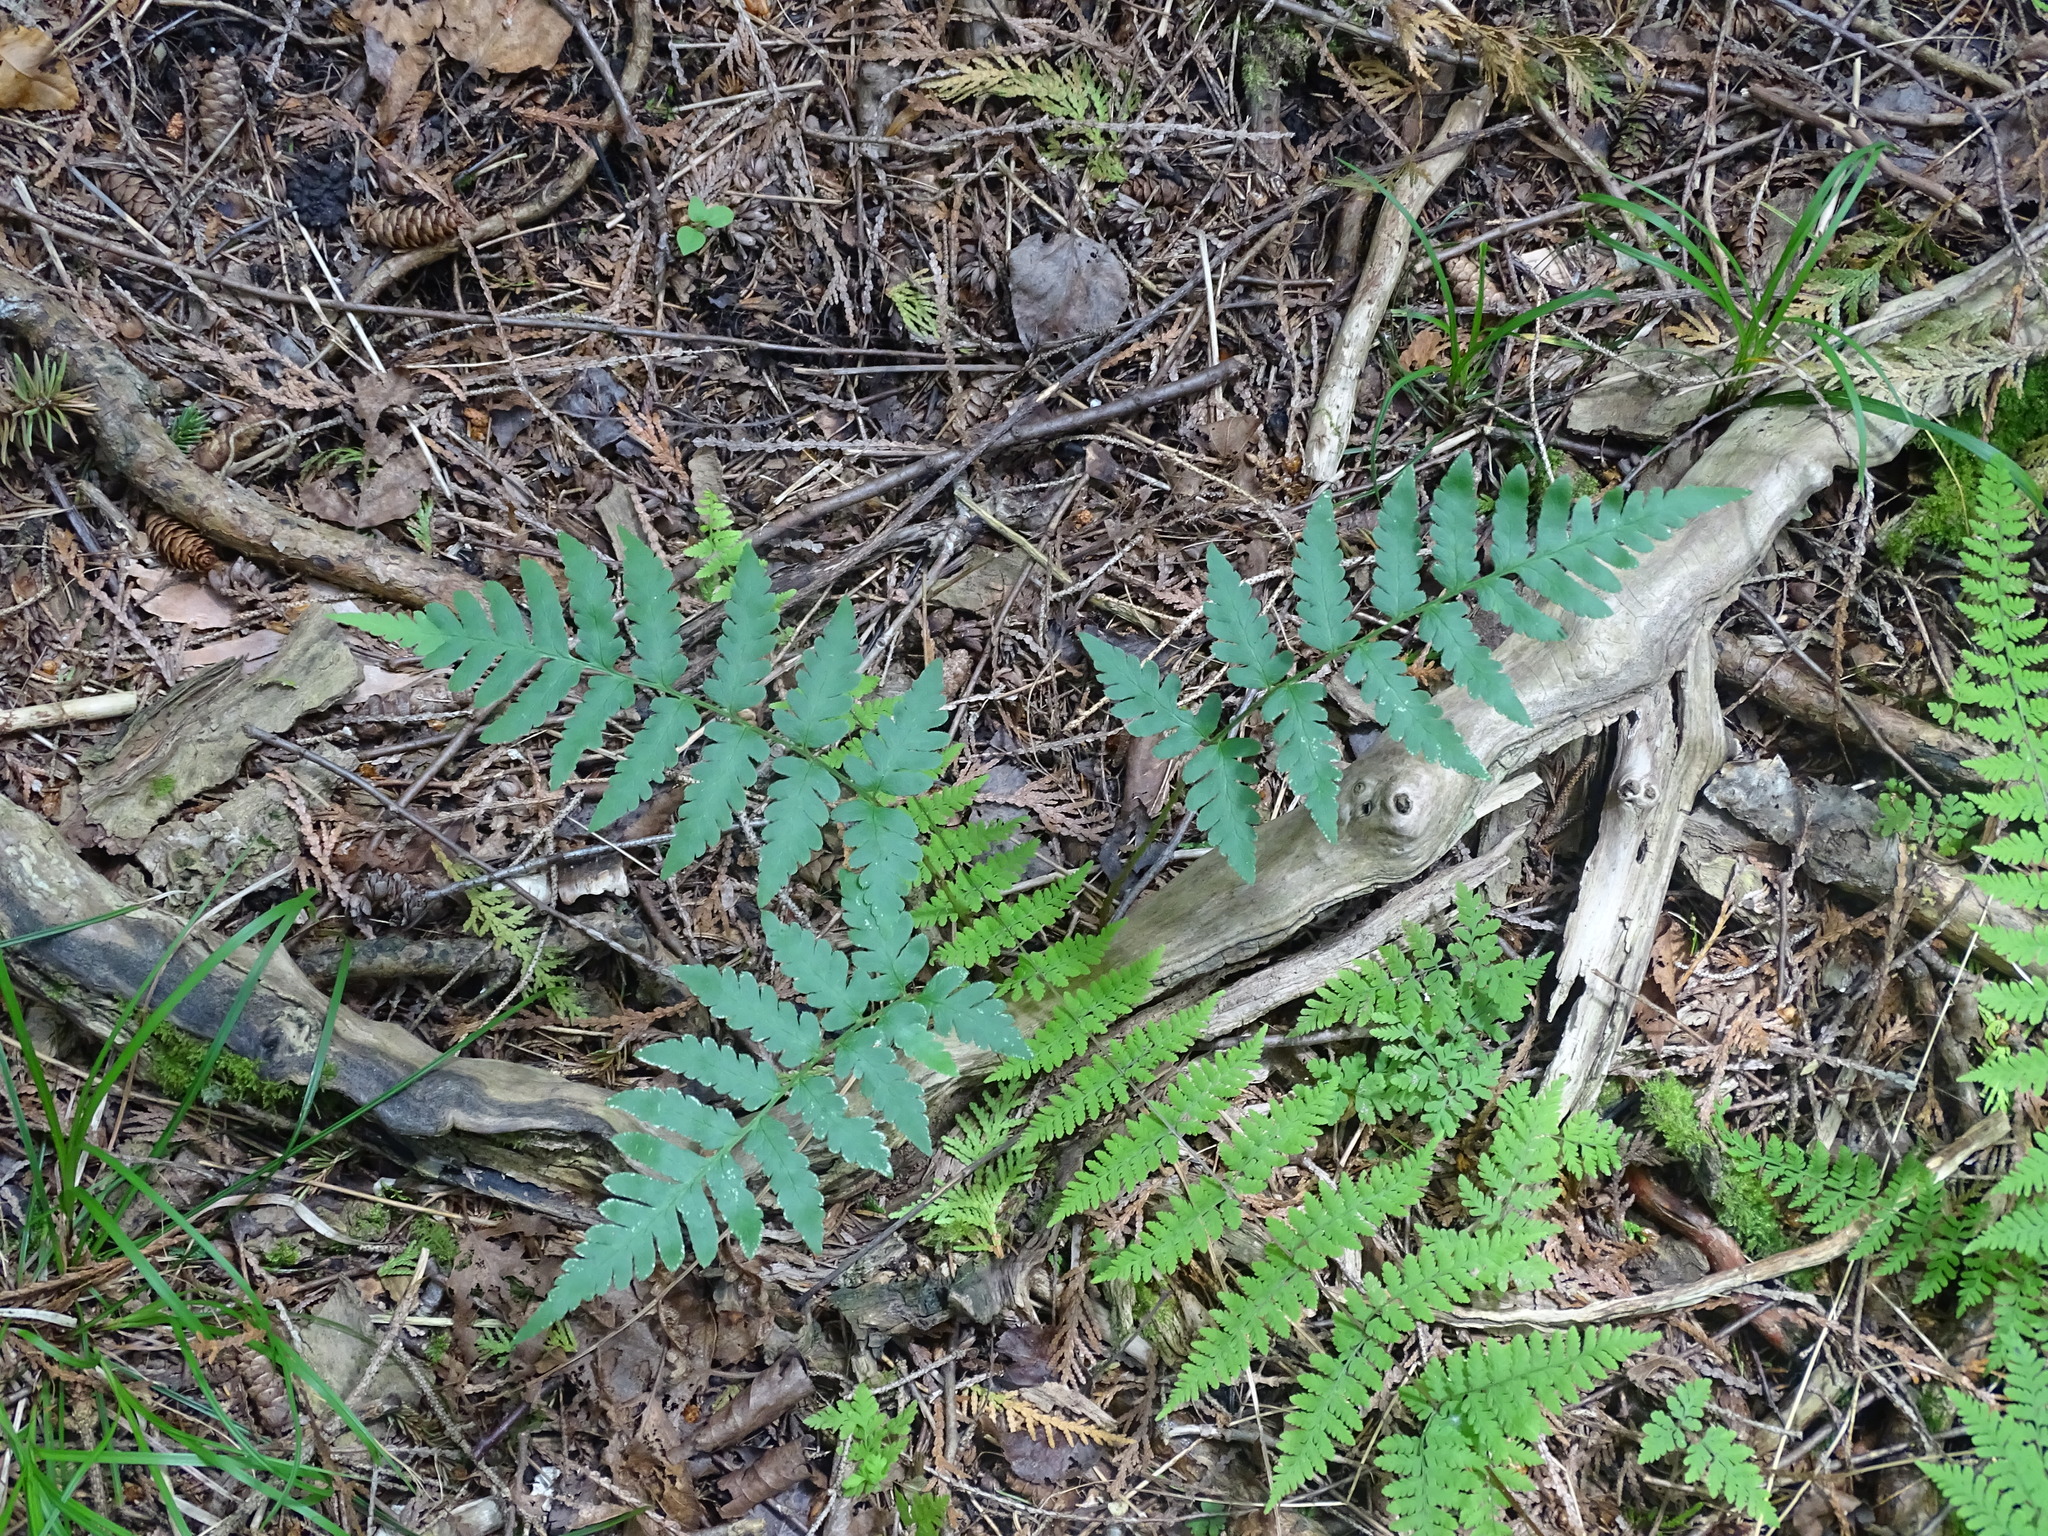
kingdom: Plantae
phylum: Tracheophyta
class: Polypodiopsida
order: Polypodiales
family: Dryopteridaceae
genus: Dryopteris
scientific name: Dryopteris cristata
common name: Crested wood fern
